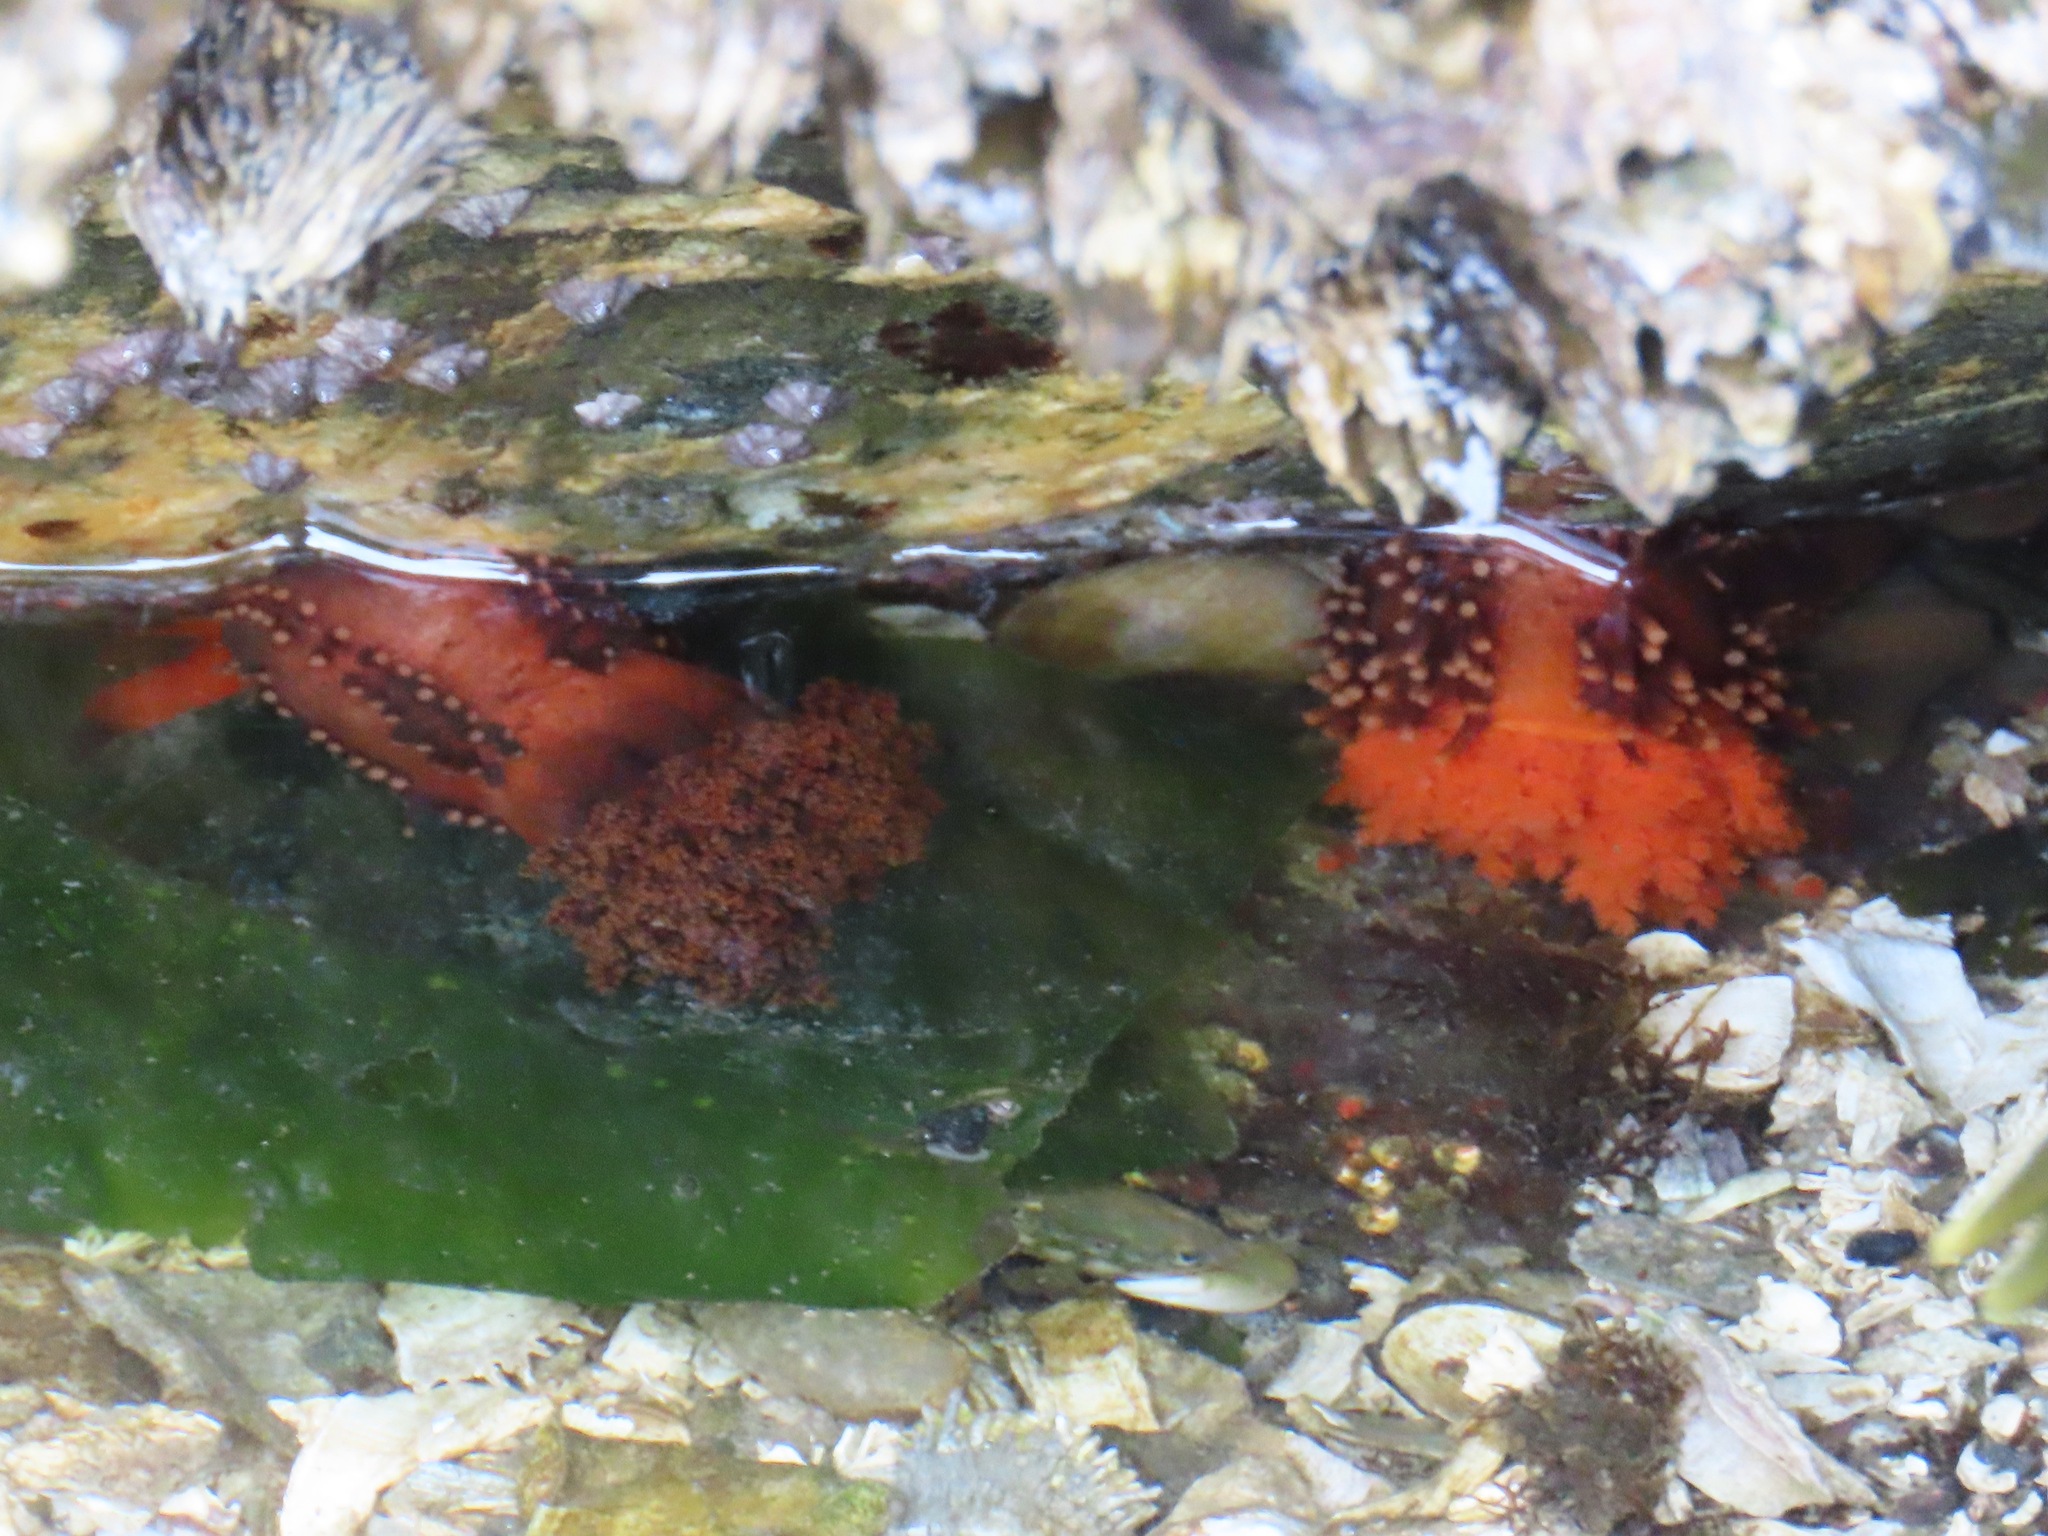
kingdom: Animalia
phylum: Echinodermata
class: Holothuroidea
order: Dendrochirotida
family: Cucumariidae
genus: Cucumaria
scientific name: Cucumaria miniata
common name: Orange sea cucumber
